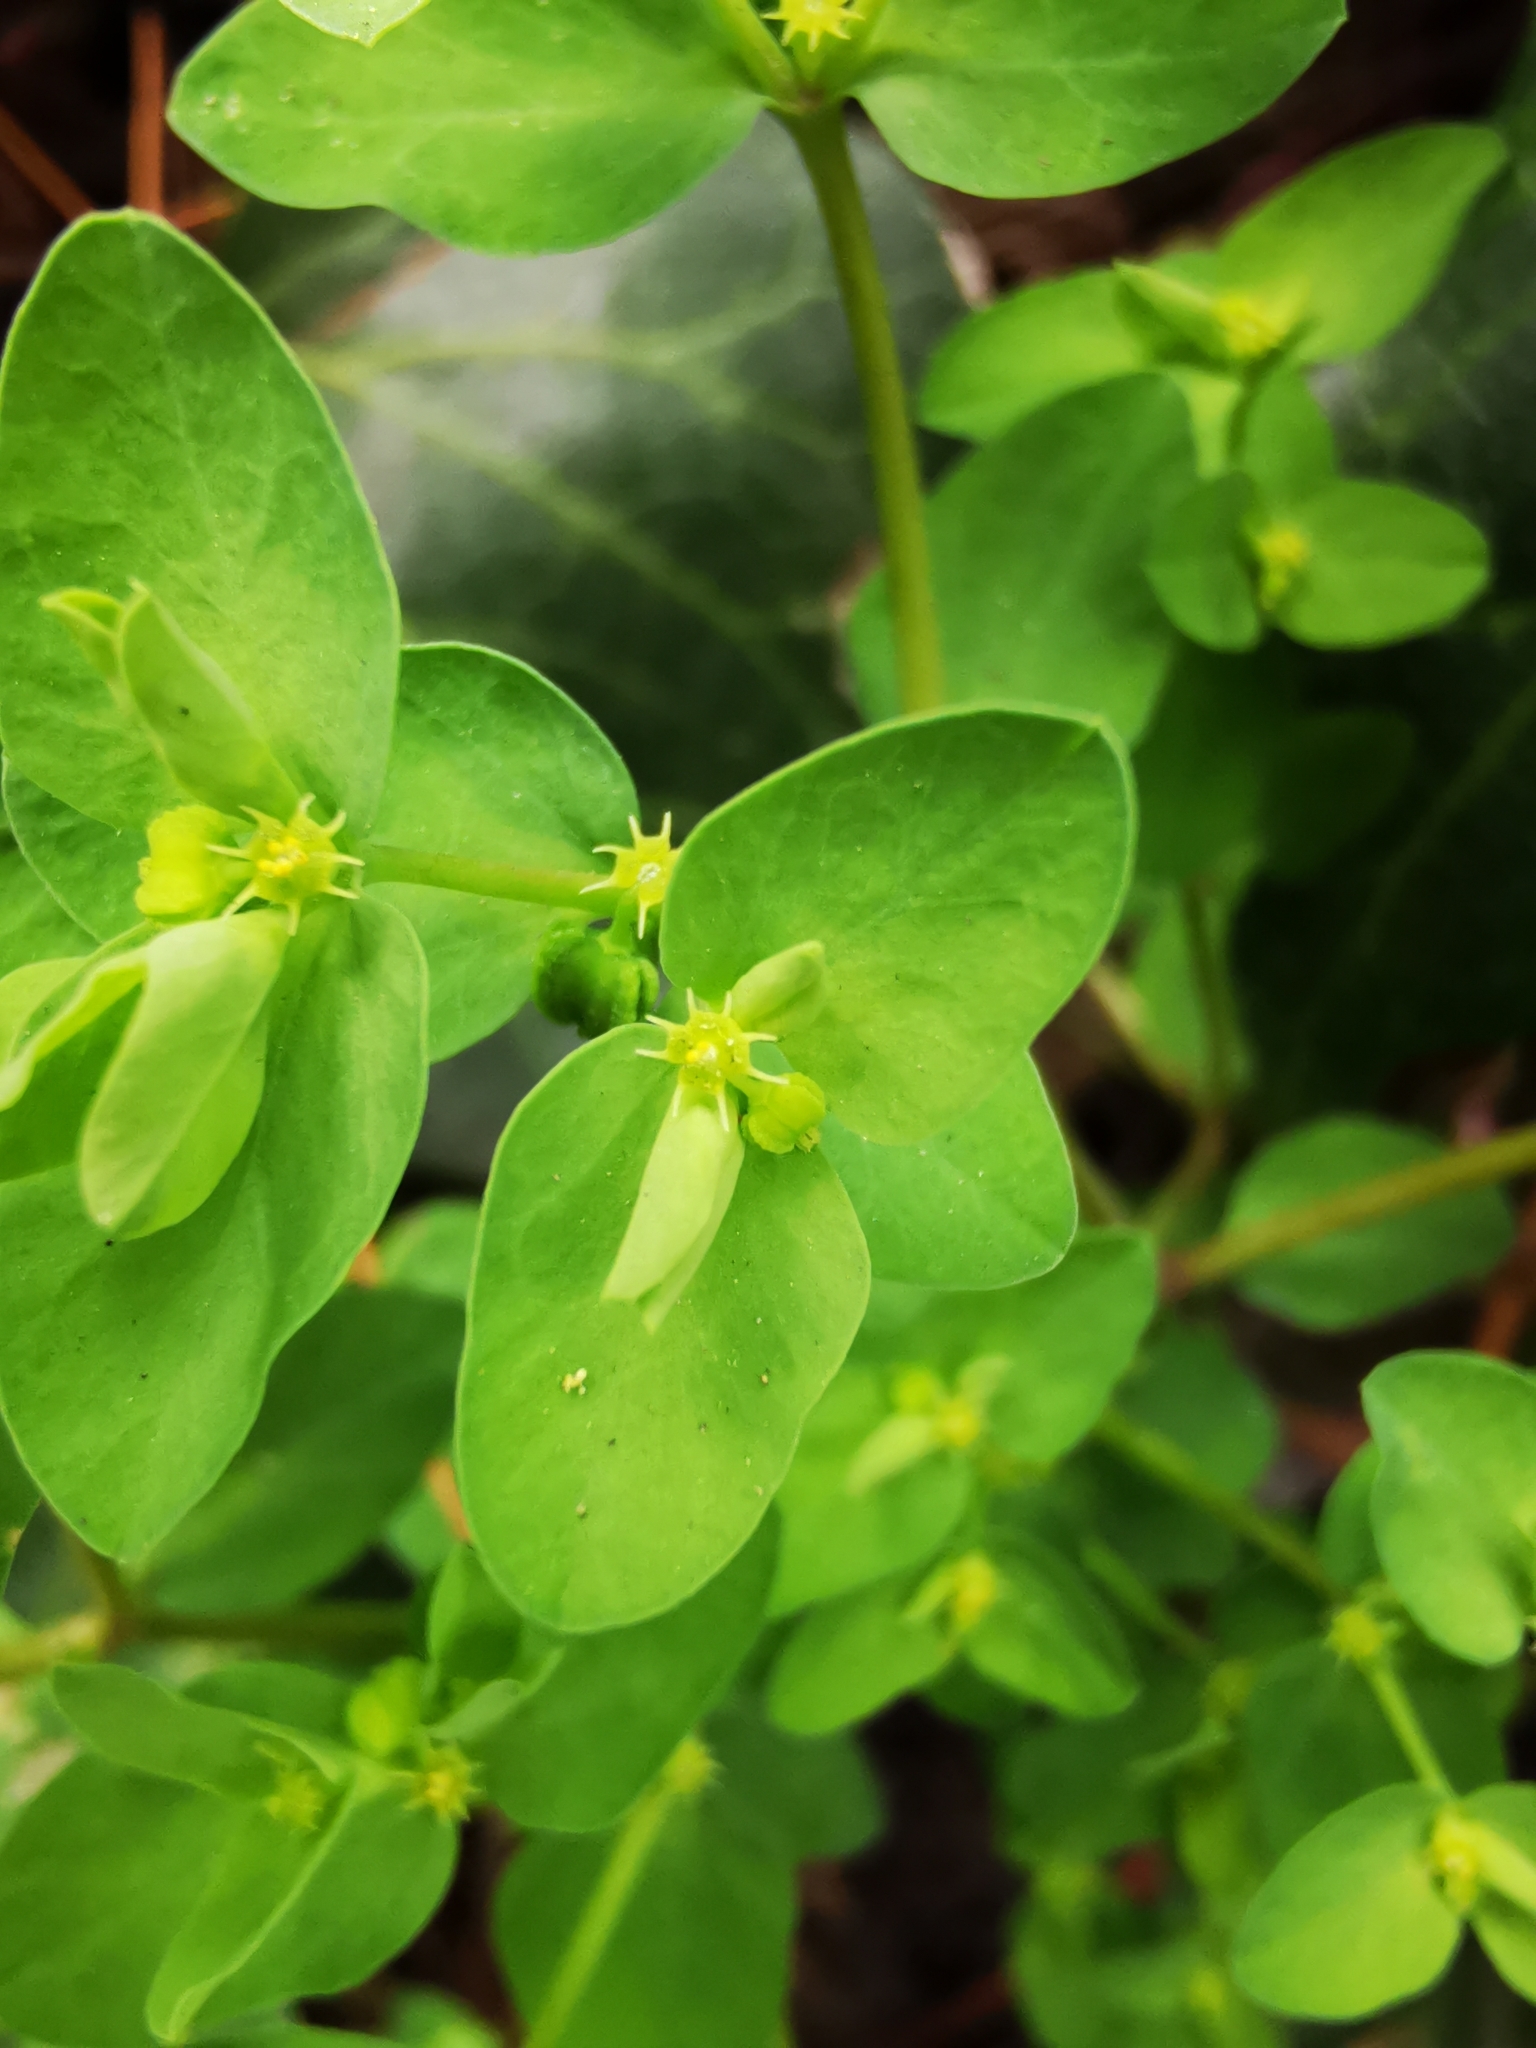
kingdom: Plantae
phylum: Tracheophyta
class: Magnoliopsida
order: Malpighiales
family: Euphorbiaceae
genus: Euphorbia
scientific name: Euphorbia peplus
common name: Petty spurge
